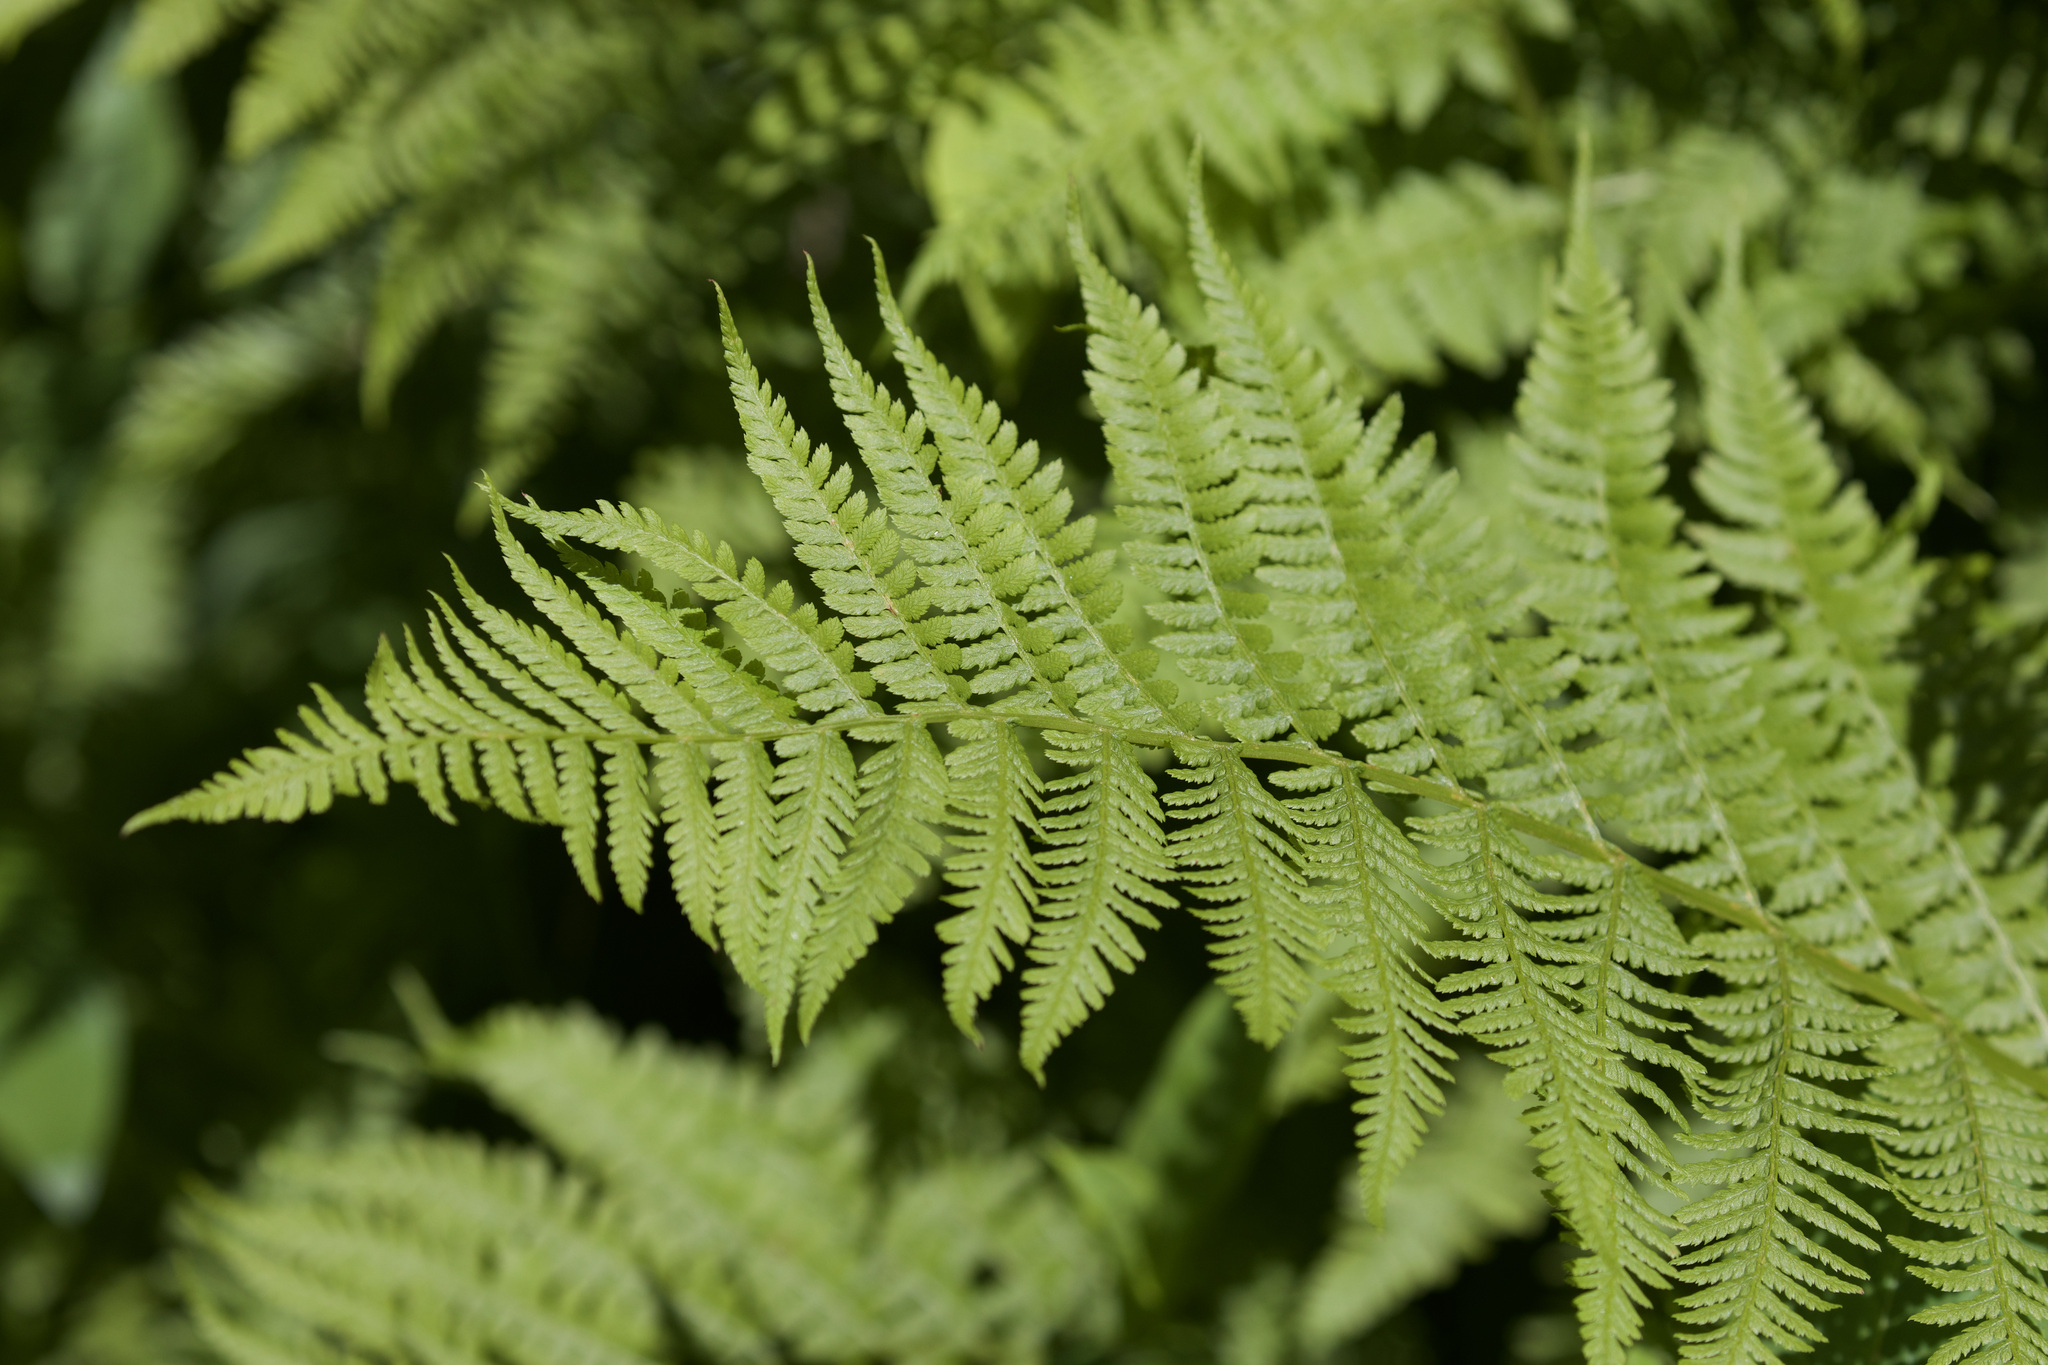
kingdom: Plantae
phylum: Tracheophyta
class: Polypodiopsida
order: Polypodiales
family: Athyriaceae
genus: Athyrium
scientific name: Athyrium cyclosorum
